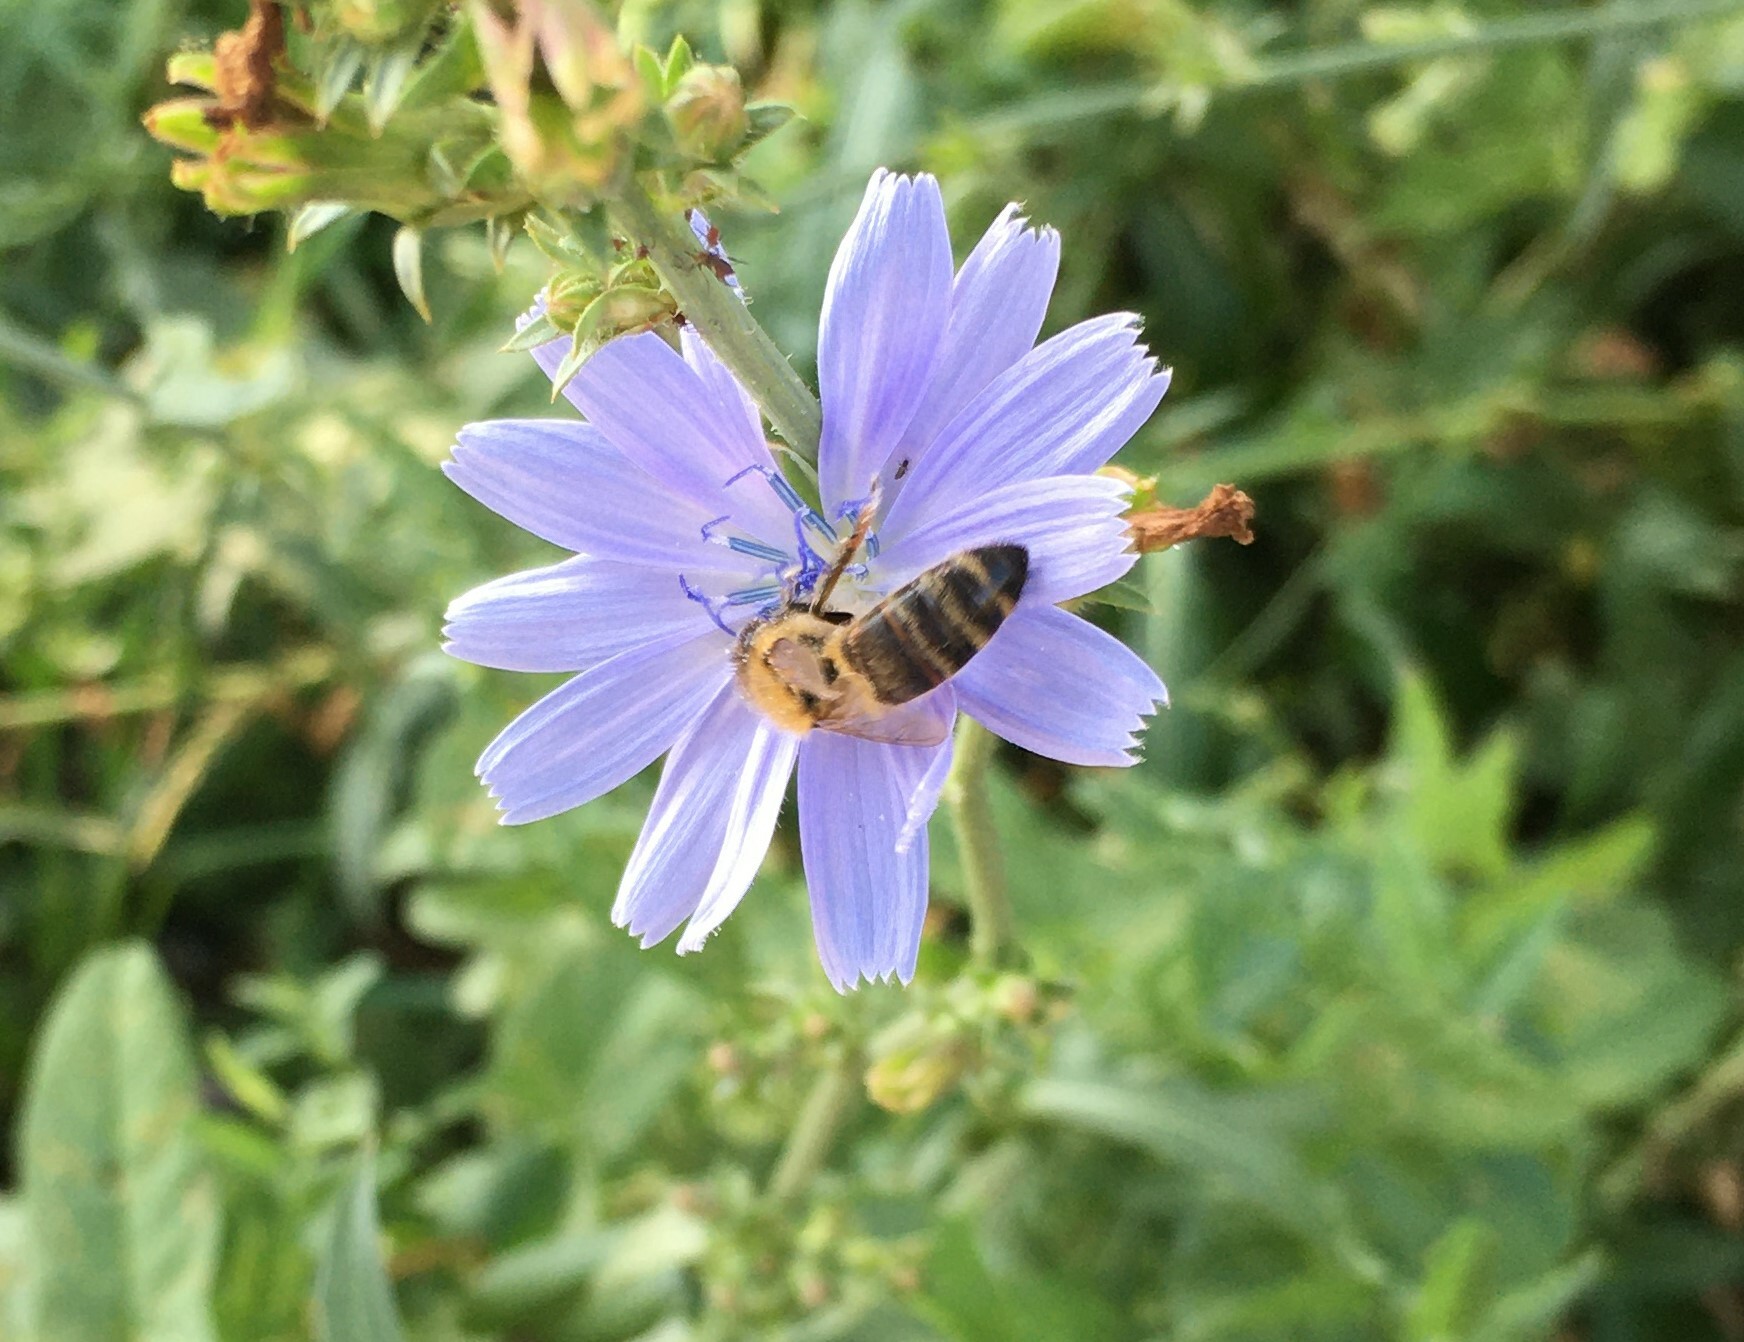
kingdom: Animalia
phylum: Arthropoda
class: Insecta
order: Hymenoptera
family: Apidae
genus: Apis
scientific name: Apis mellifera
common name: Honey bee
